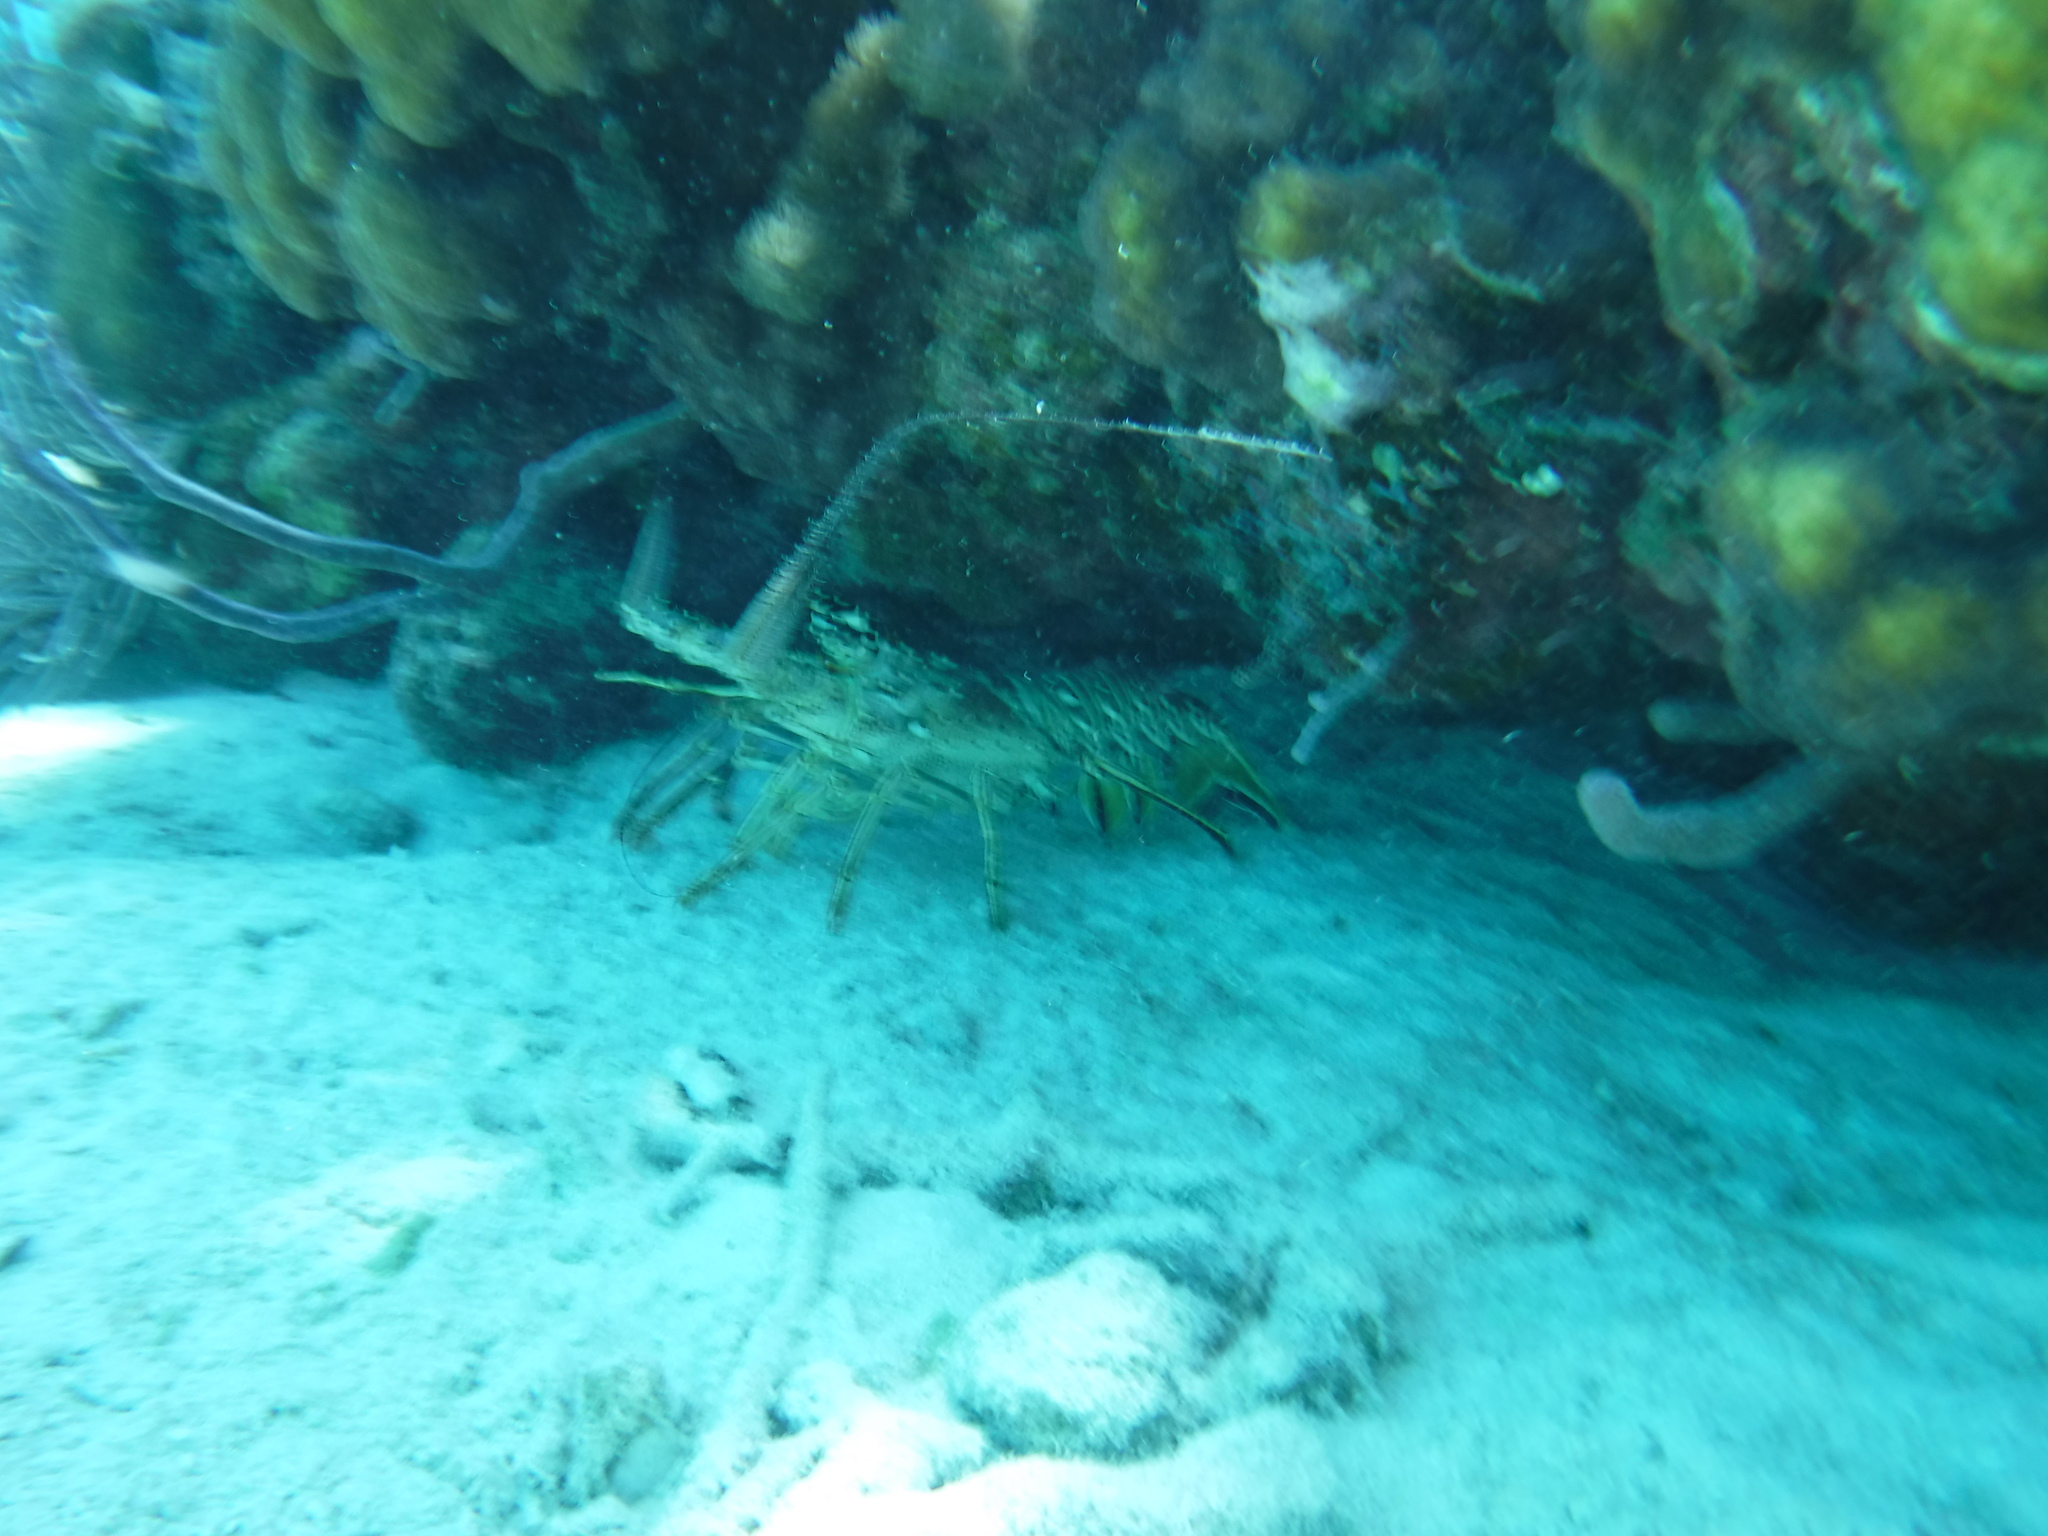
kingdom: Animalia
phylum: Arthropoda
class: Malacostraca
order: Decapoda
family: Palinuridae
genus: Panulirus
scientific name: Panulirus argus
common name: Caribbean spiny lobster
